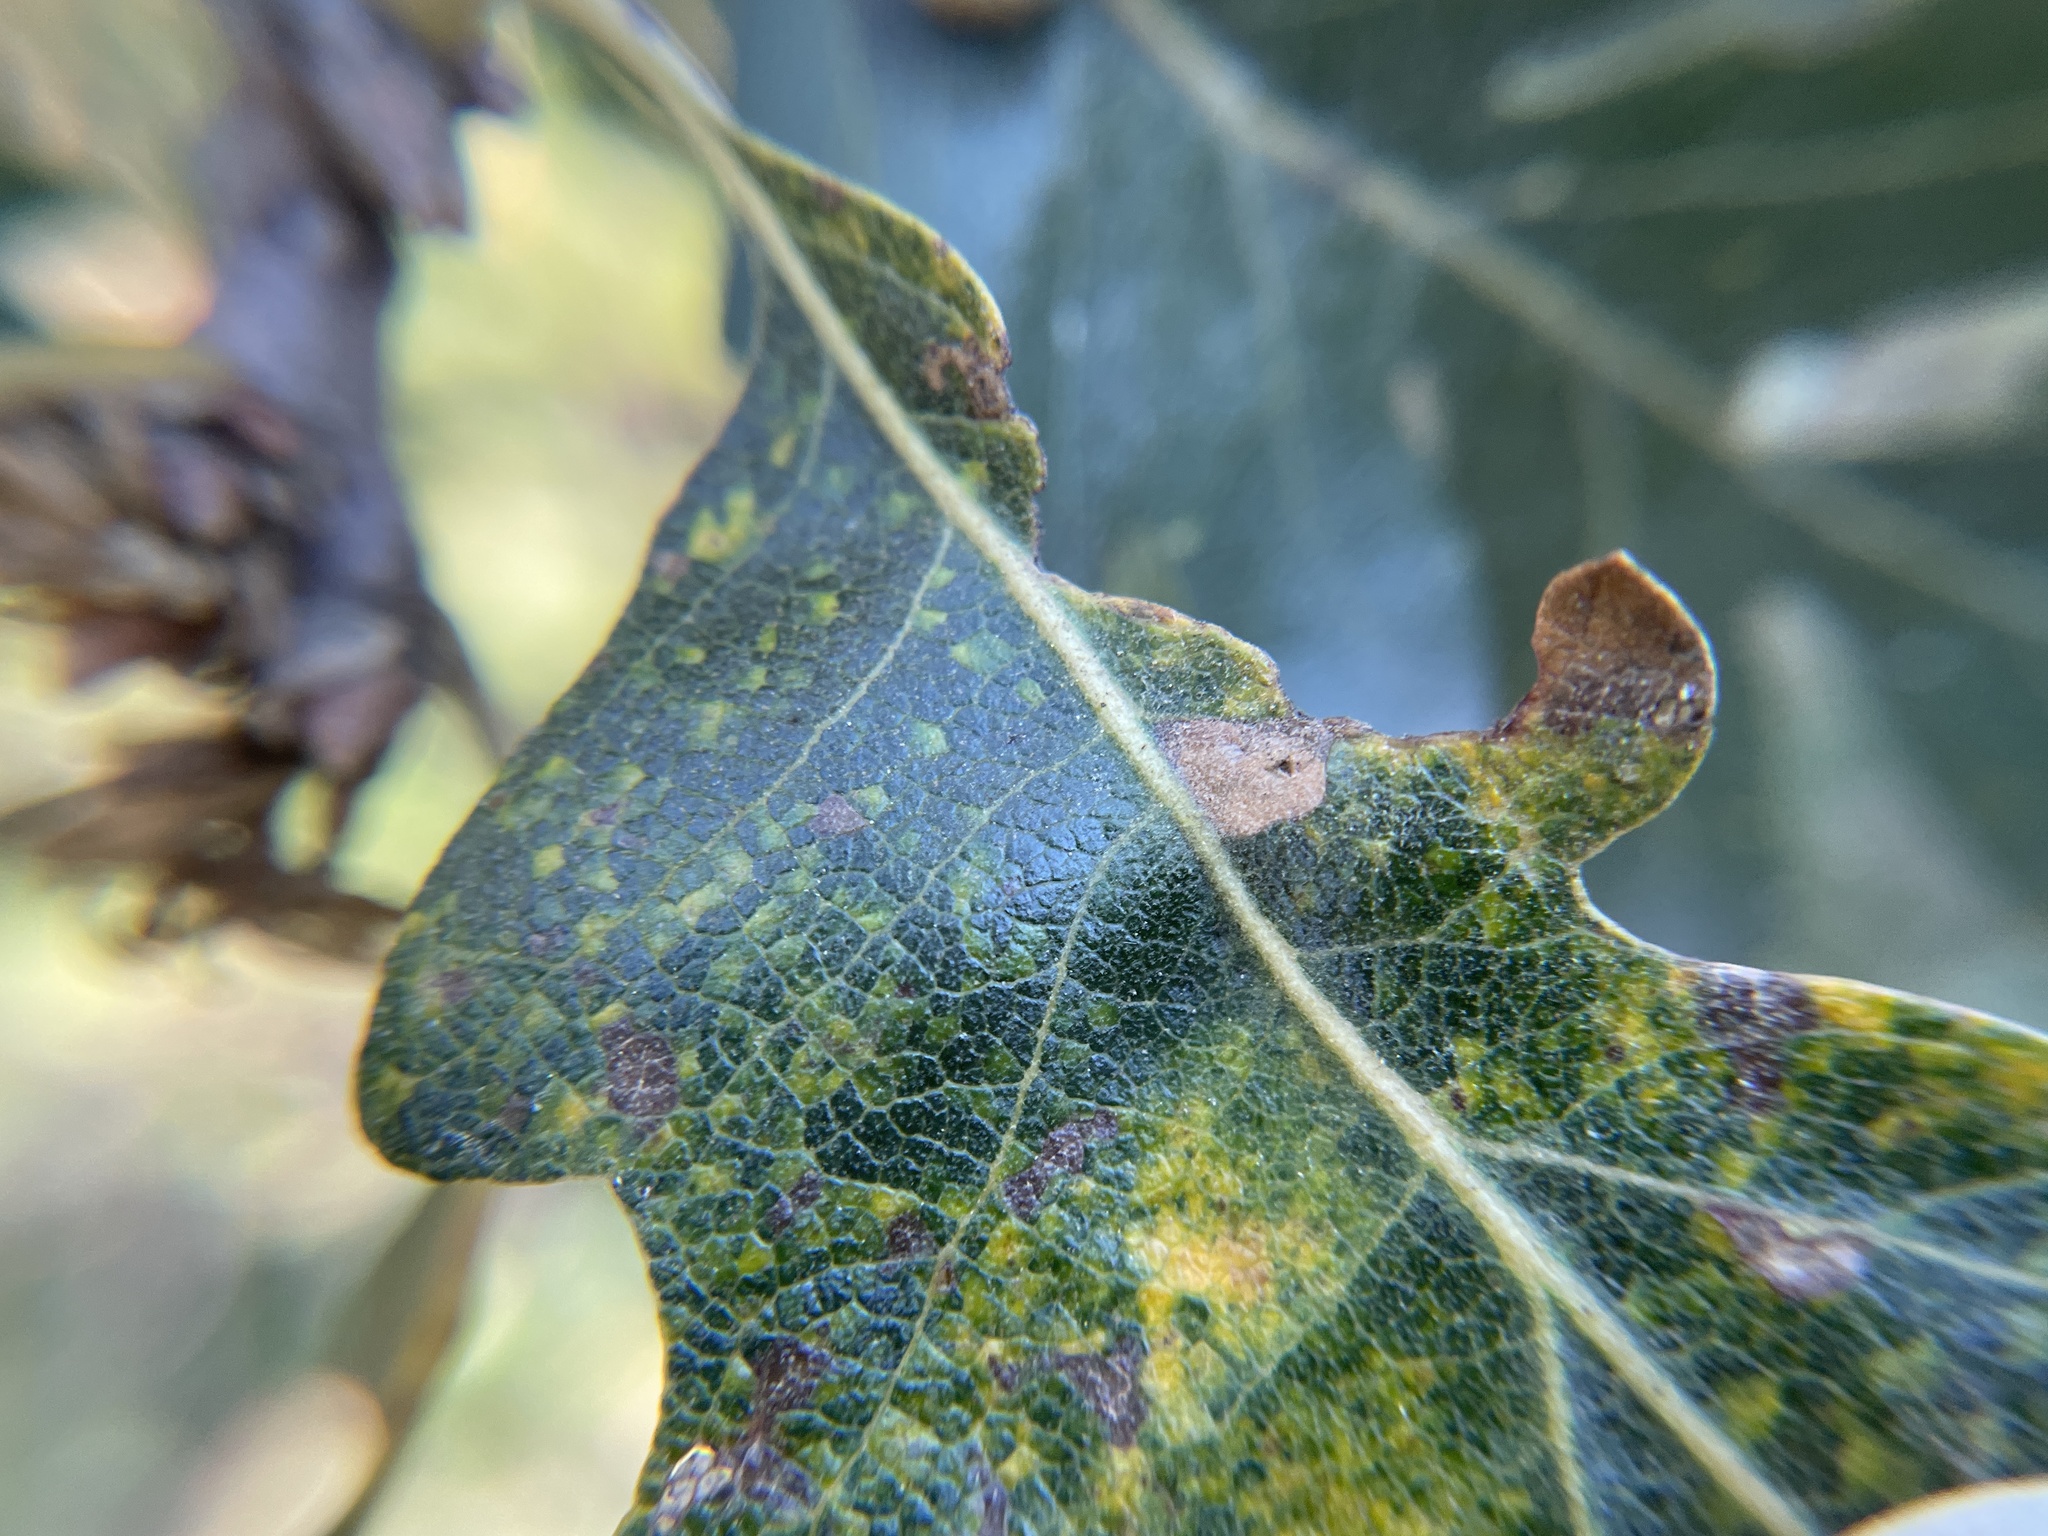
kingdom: Animalia
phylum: Arthropoda
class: Insecta
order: Hymenoptera
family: Cynipidae
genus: Cynips
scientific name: Cynips conspicua
